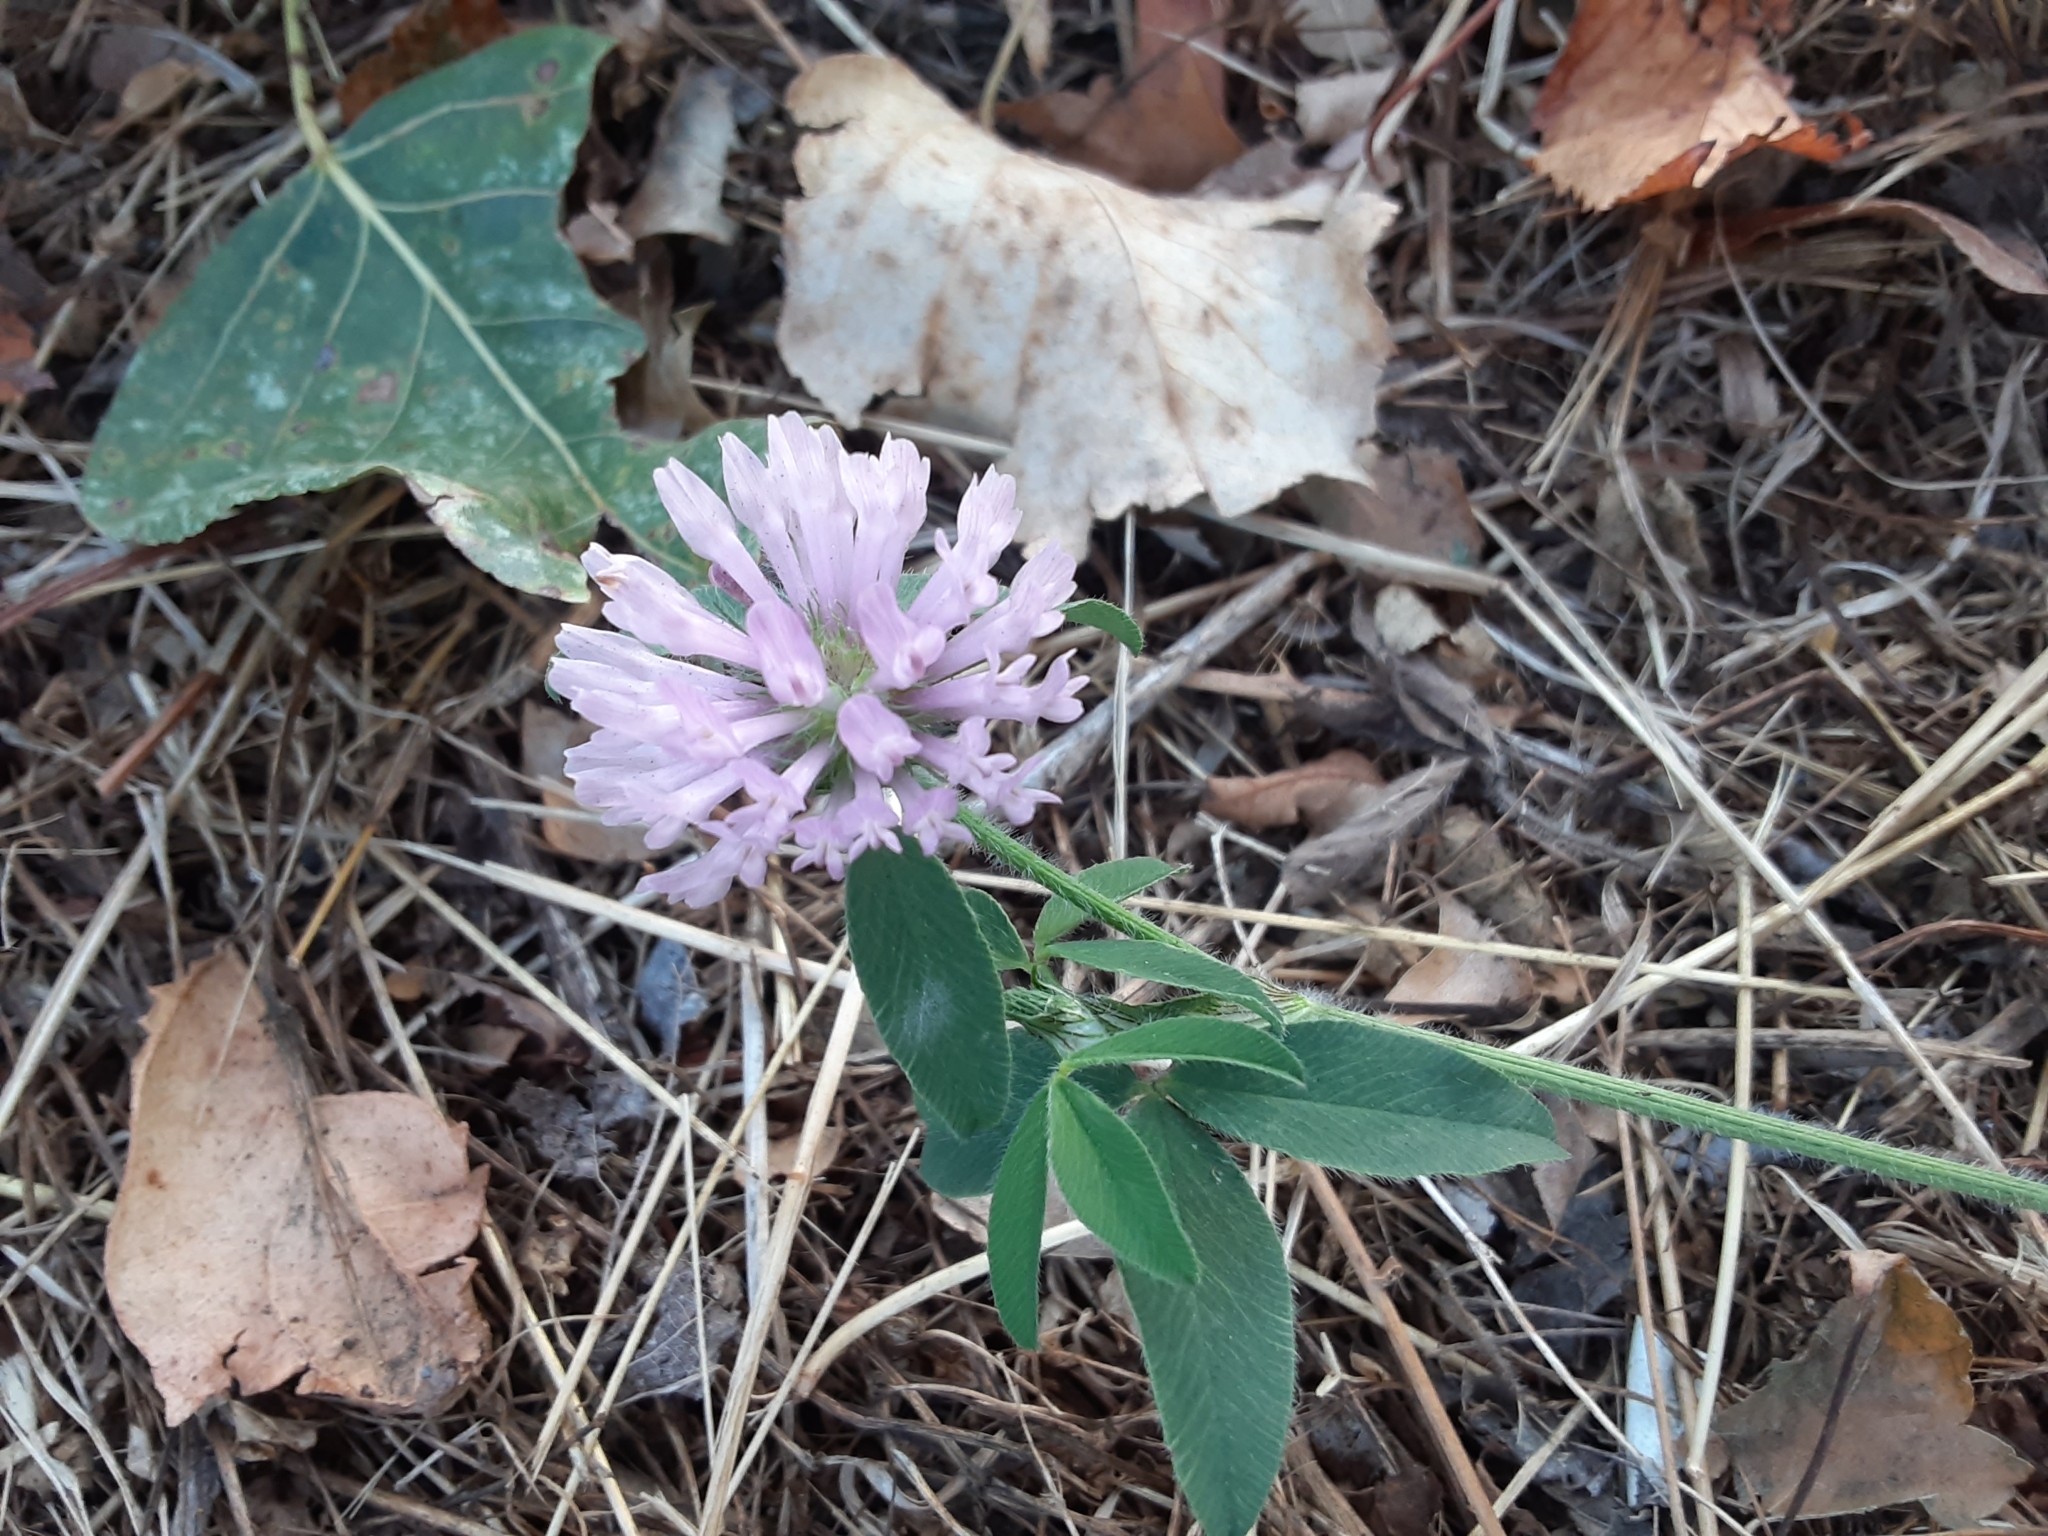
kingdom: Plantae
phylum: Tracheophyta
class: Magnoliopsida
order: Fabales
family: Fabaceae
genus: Trifolium
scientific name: Trifolium pratense
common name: Red clover
